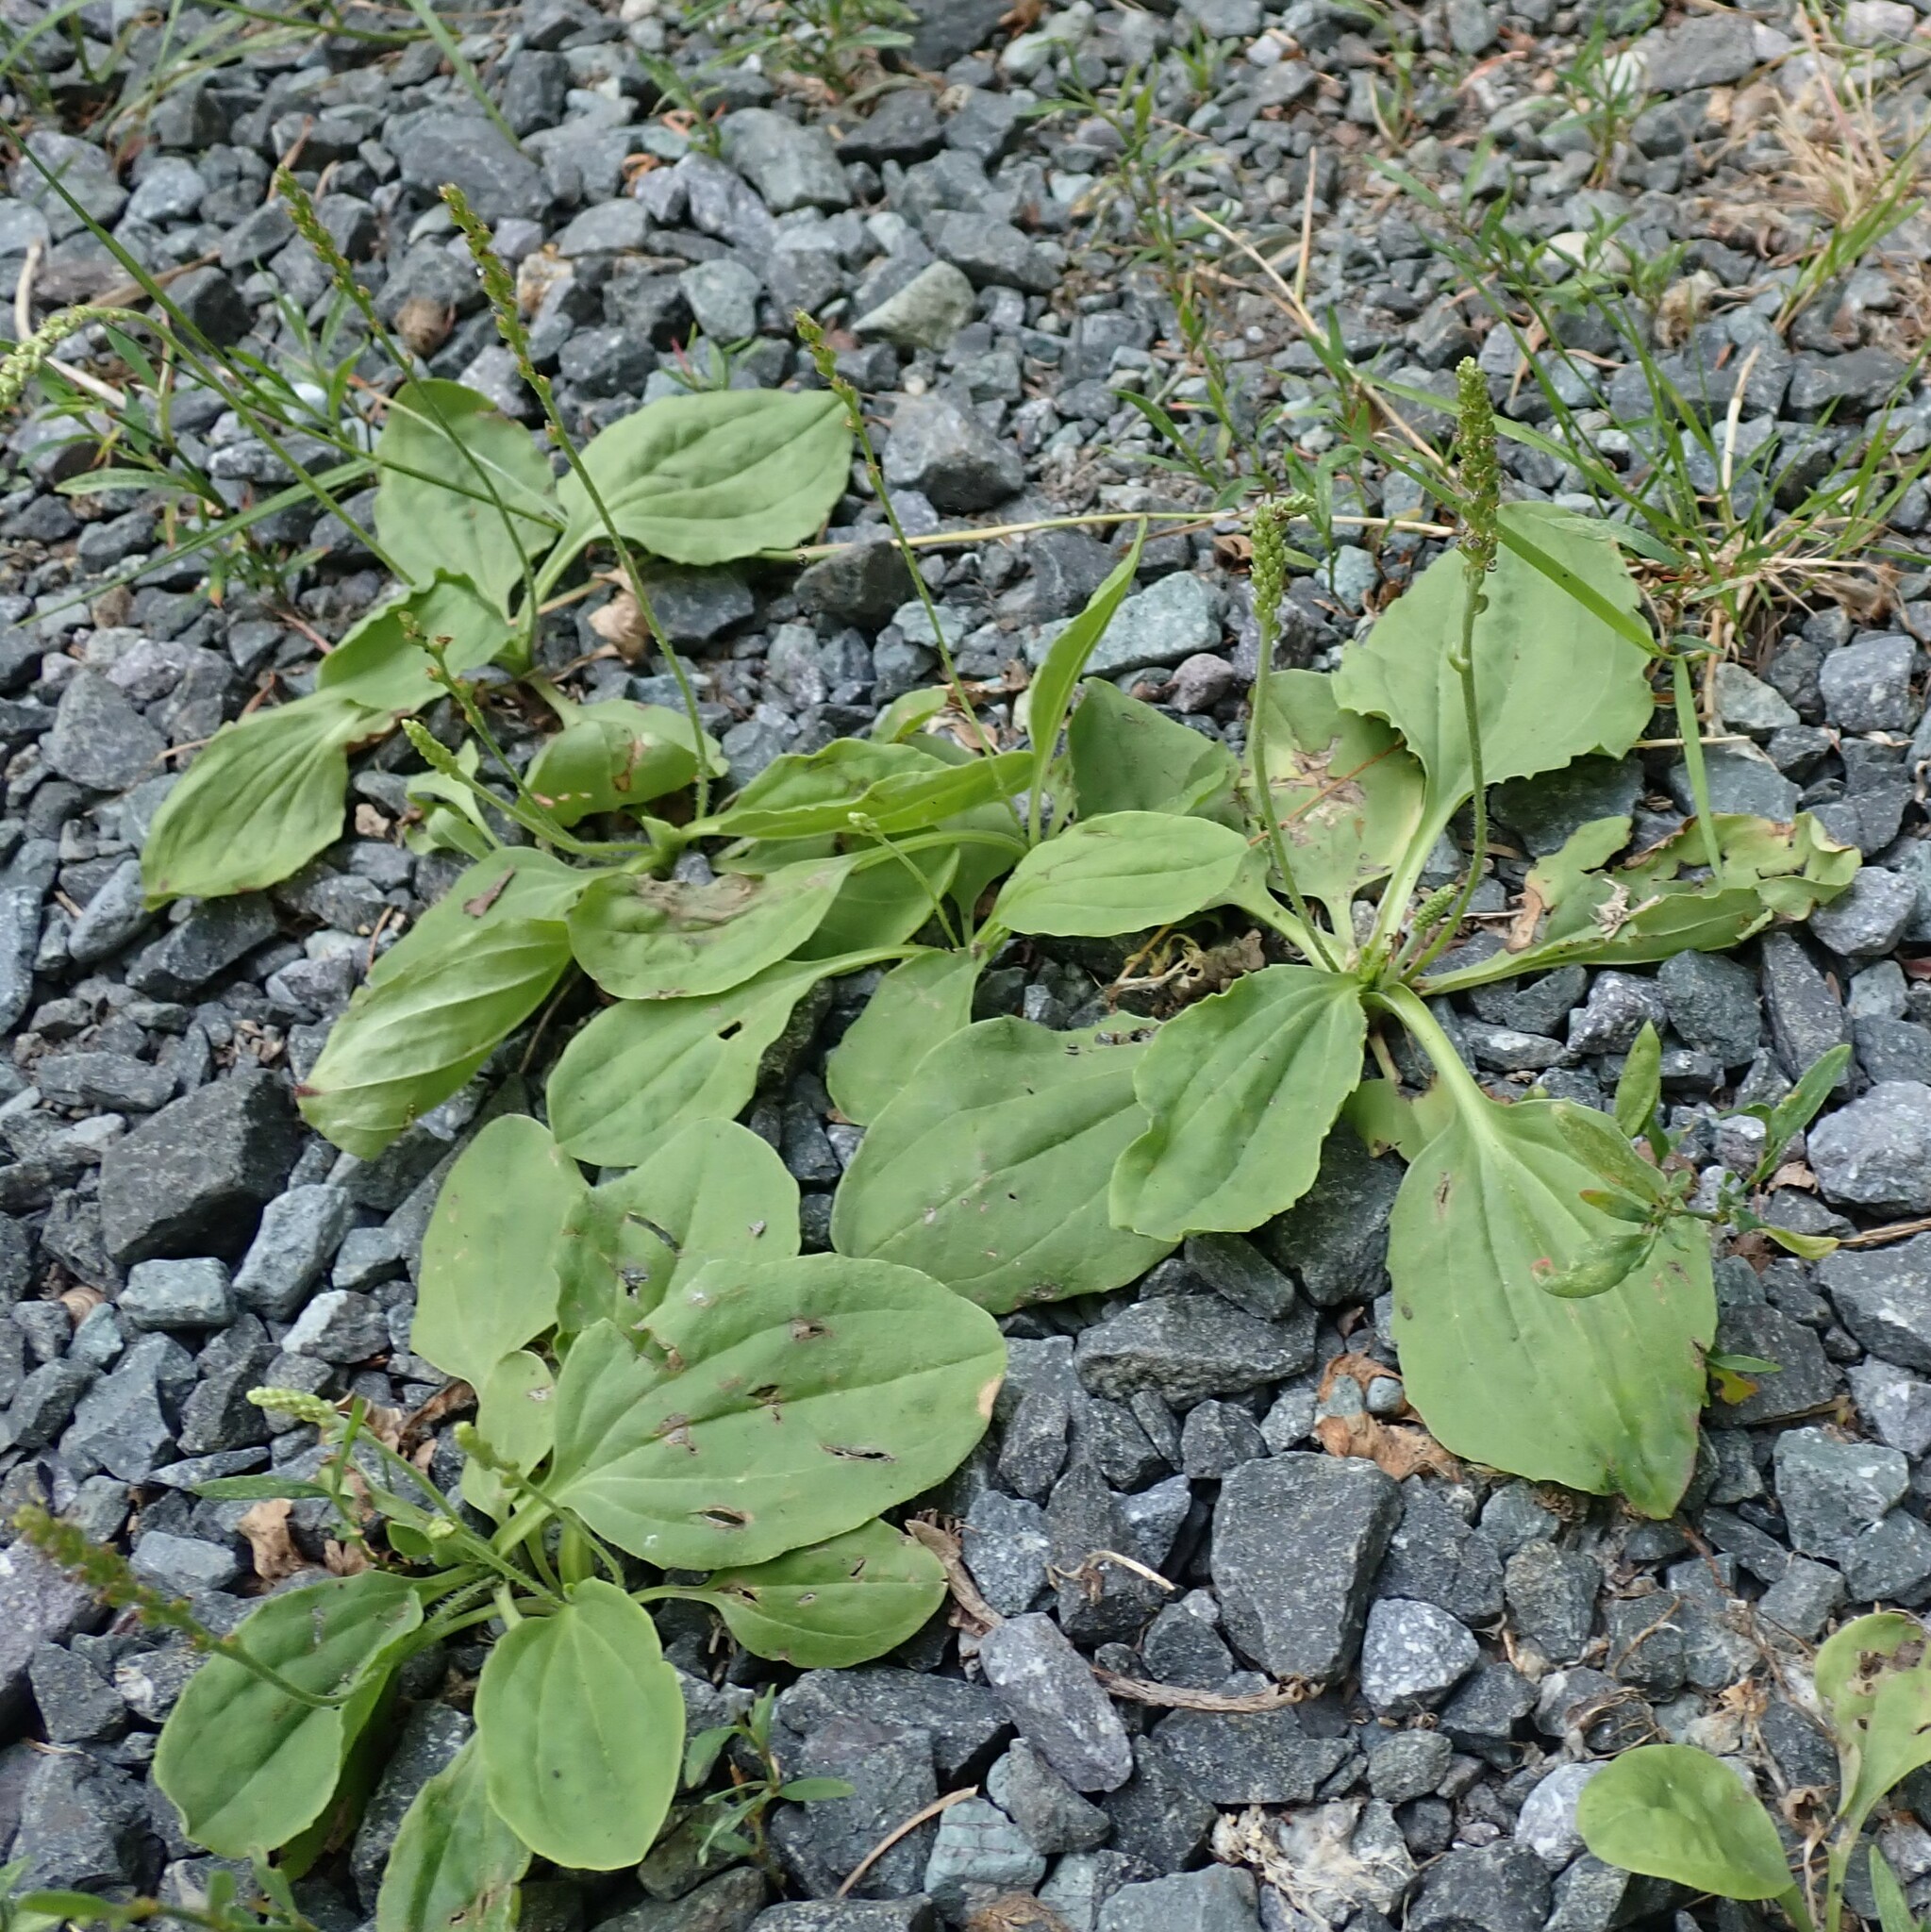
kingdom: Plantae
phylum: Tracheophyta
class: Magnoliopsida
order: Lamiales
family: Plantaginaceae
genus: Plantago
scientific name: Plantago major
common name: Common plantain
